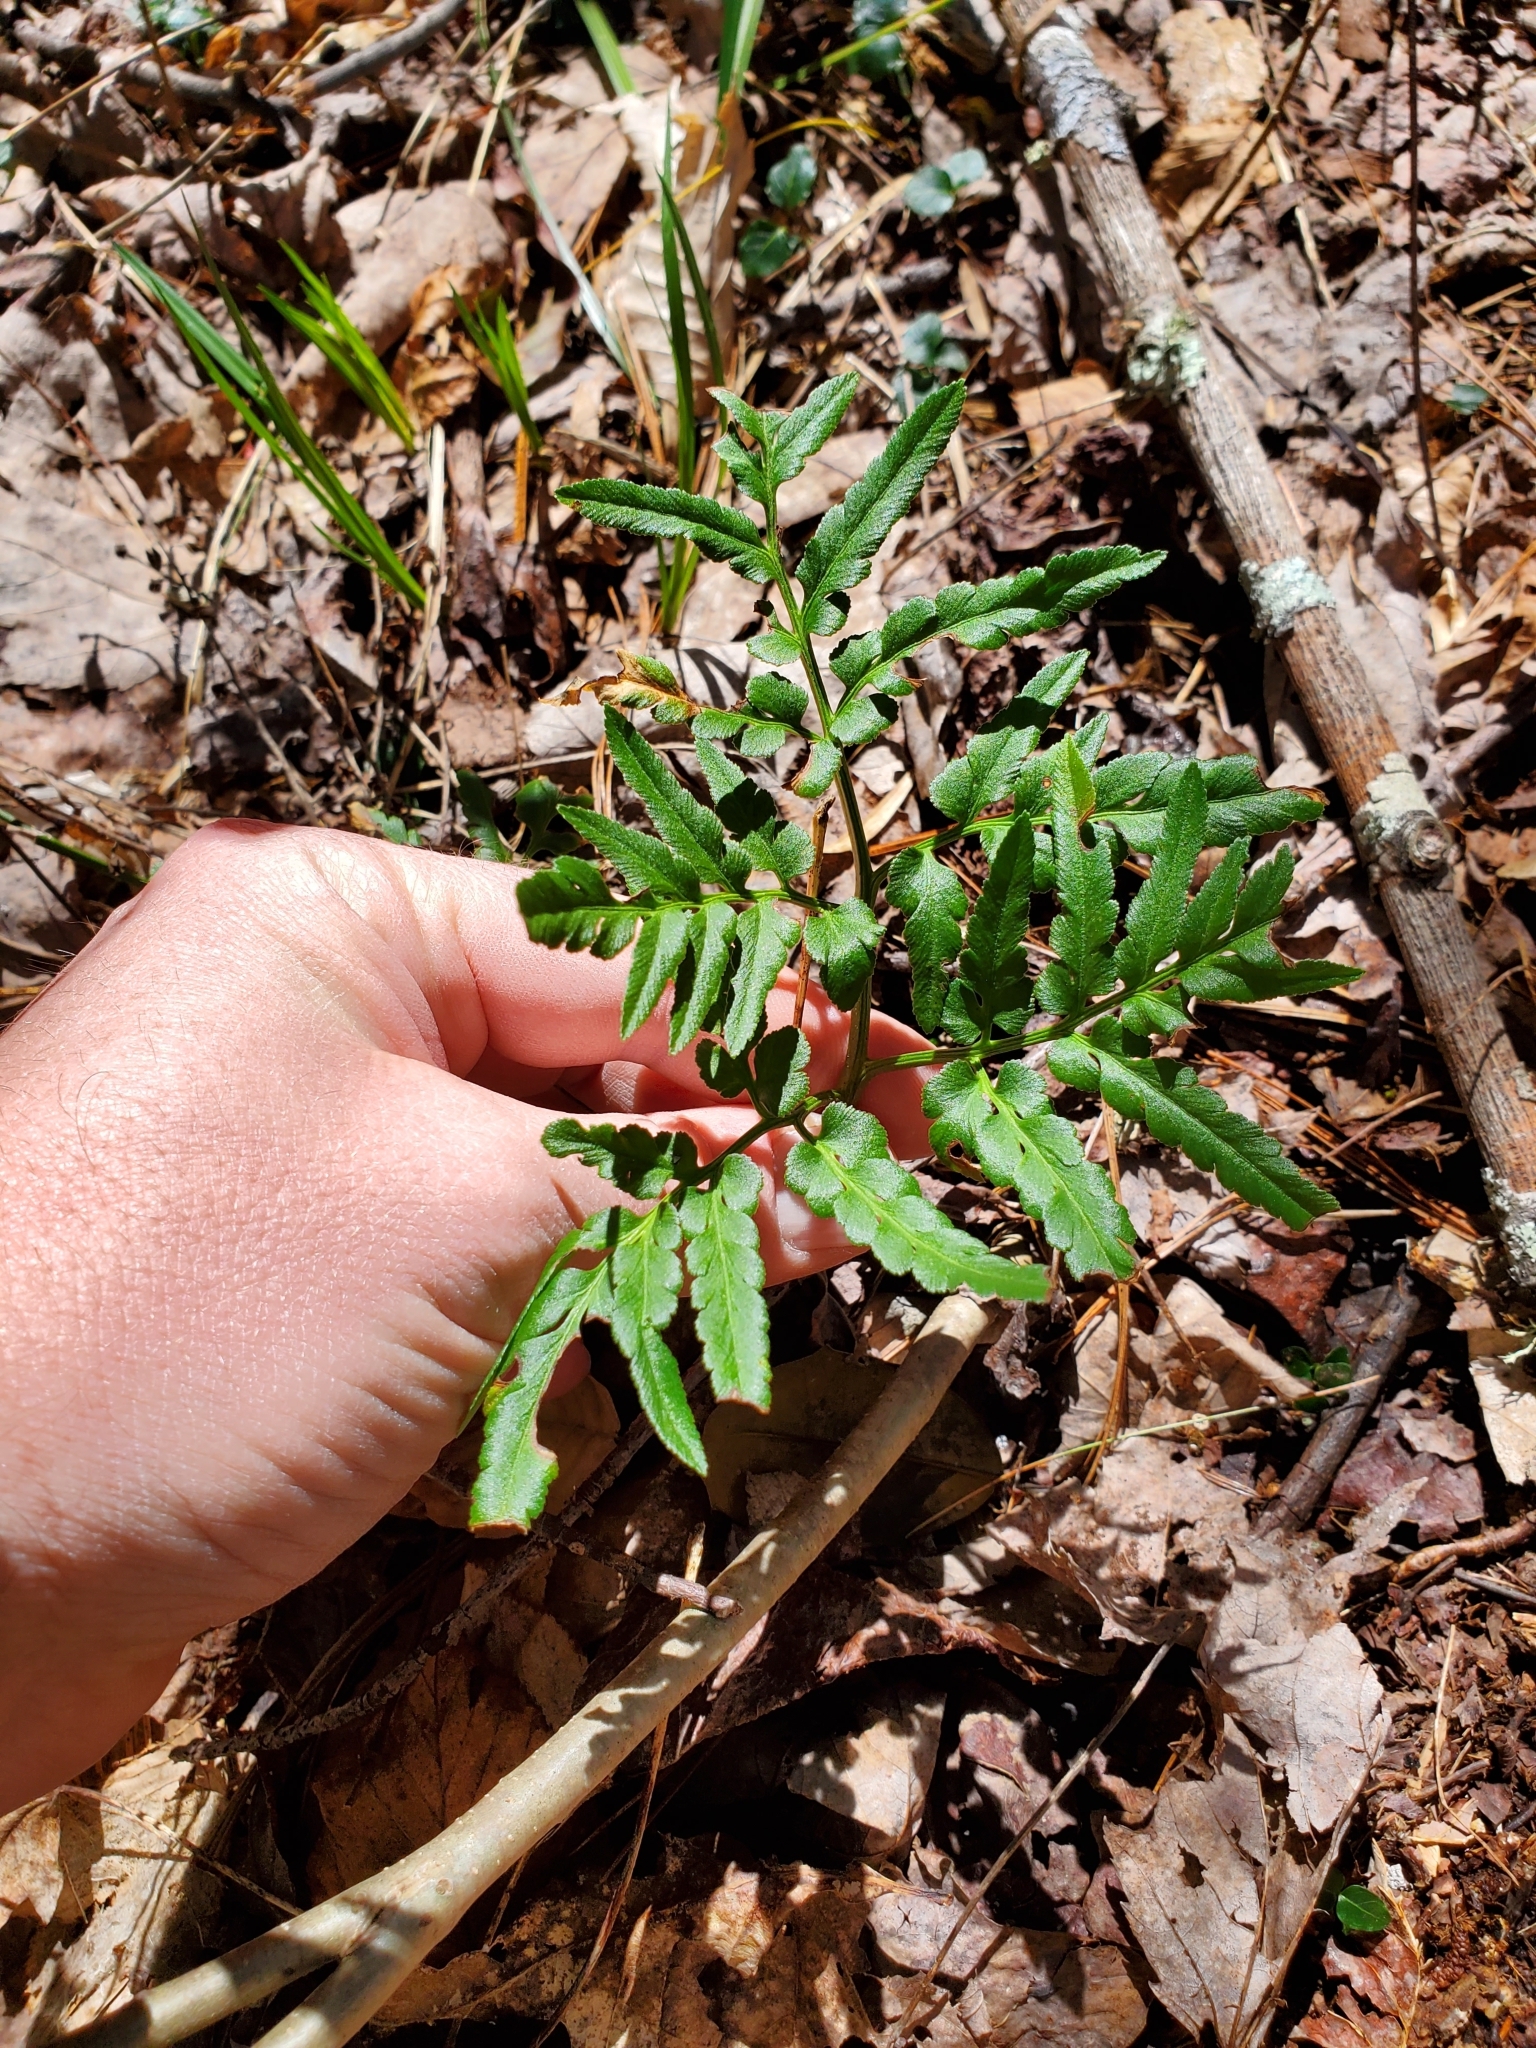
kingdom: Plantae
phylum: Tracheophyta
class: Polypodiopsida
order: Ophioglossales
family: Ophioglossaceae
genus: Sceptridium
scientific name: Sceptridium dissectum
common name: Cut-leaved grapefern
